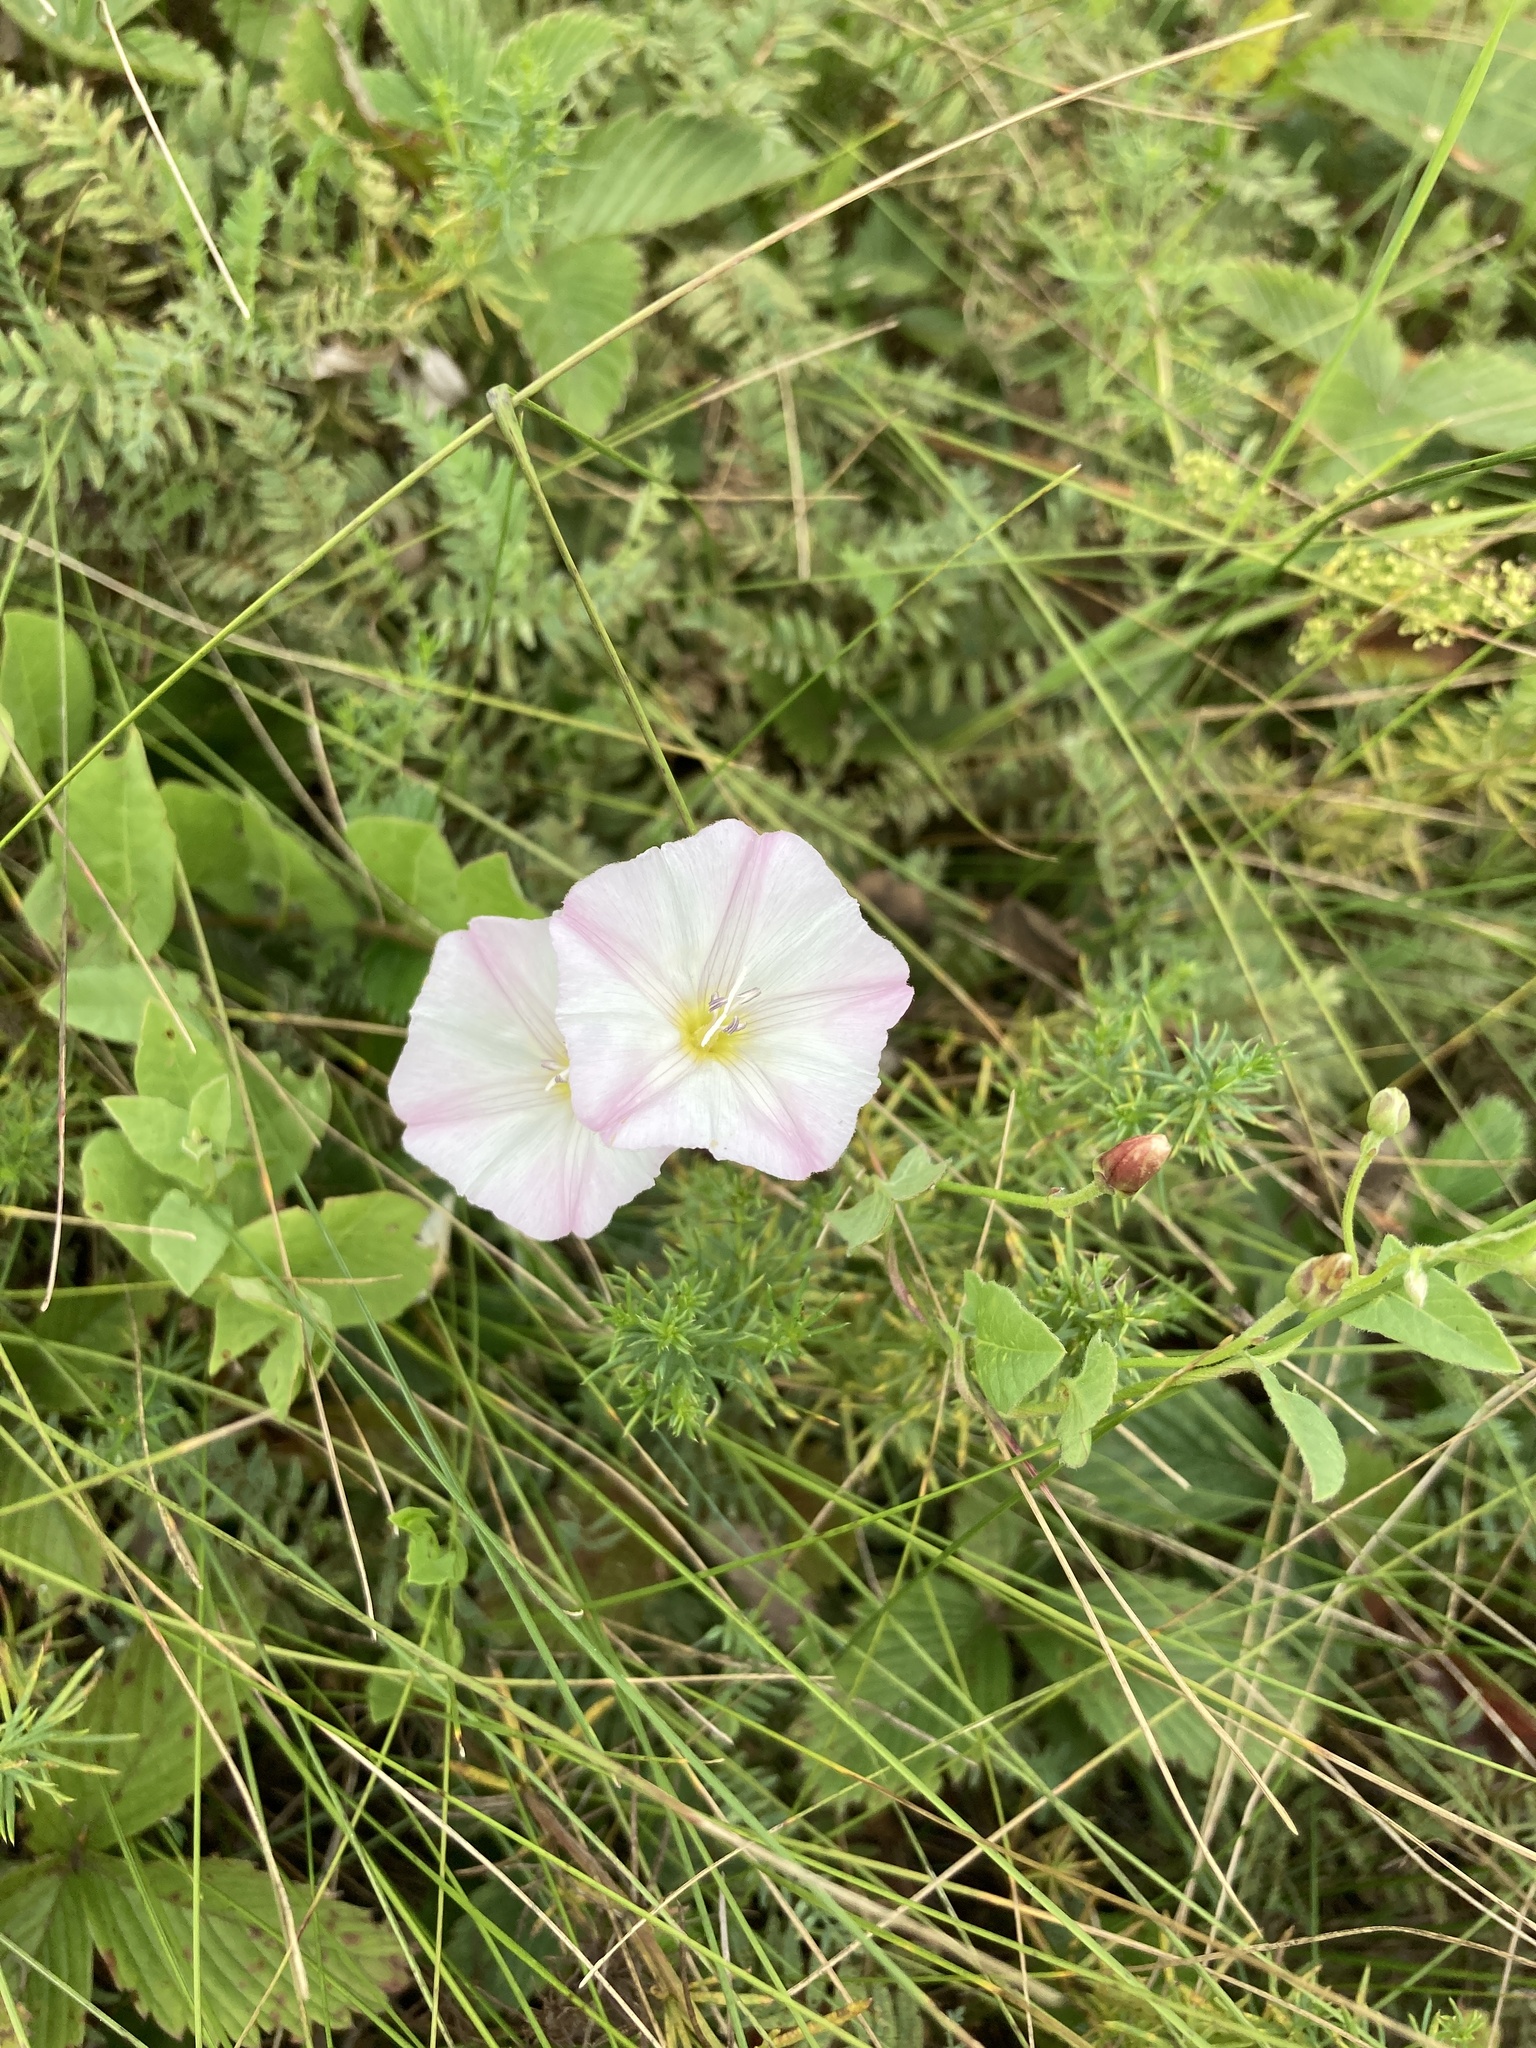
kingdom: Plantae
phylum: Tracheophyta
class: Magnoliopsida
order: Solanales
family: Convolvulaceae
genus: Convolvulus
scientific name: Convolvulus arvensis
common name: Field bindweed
